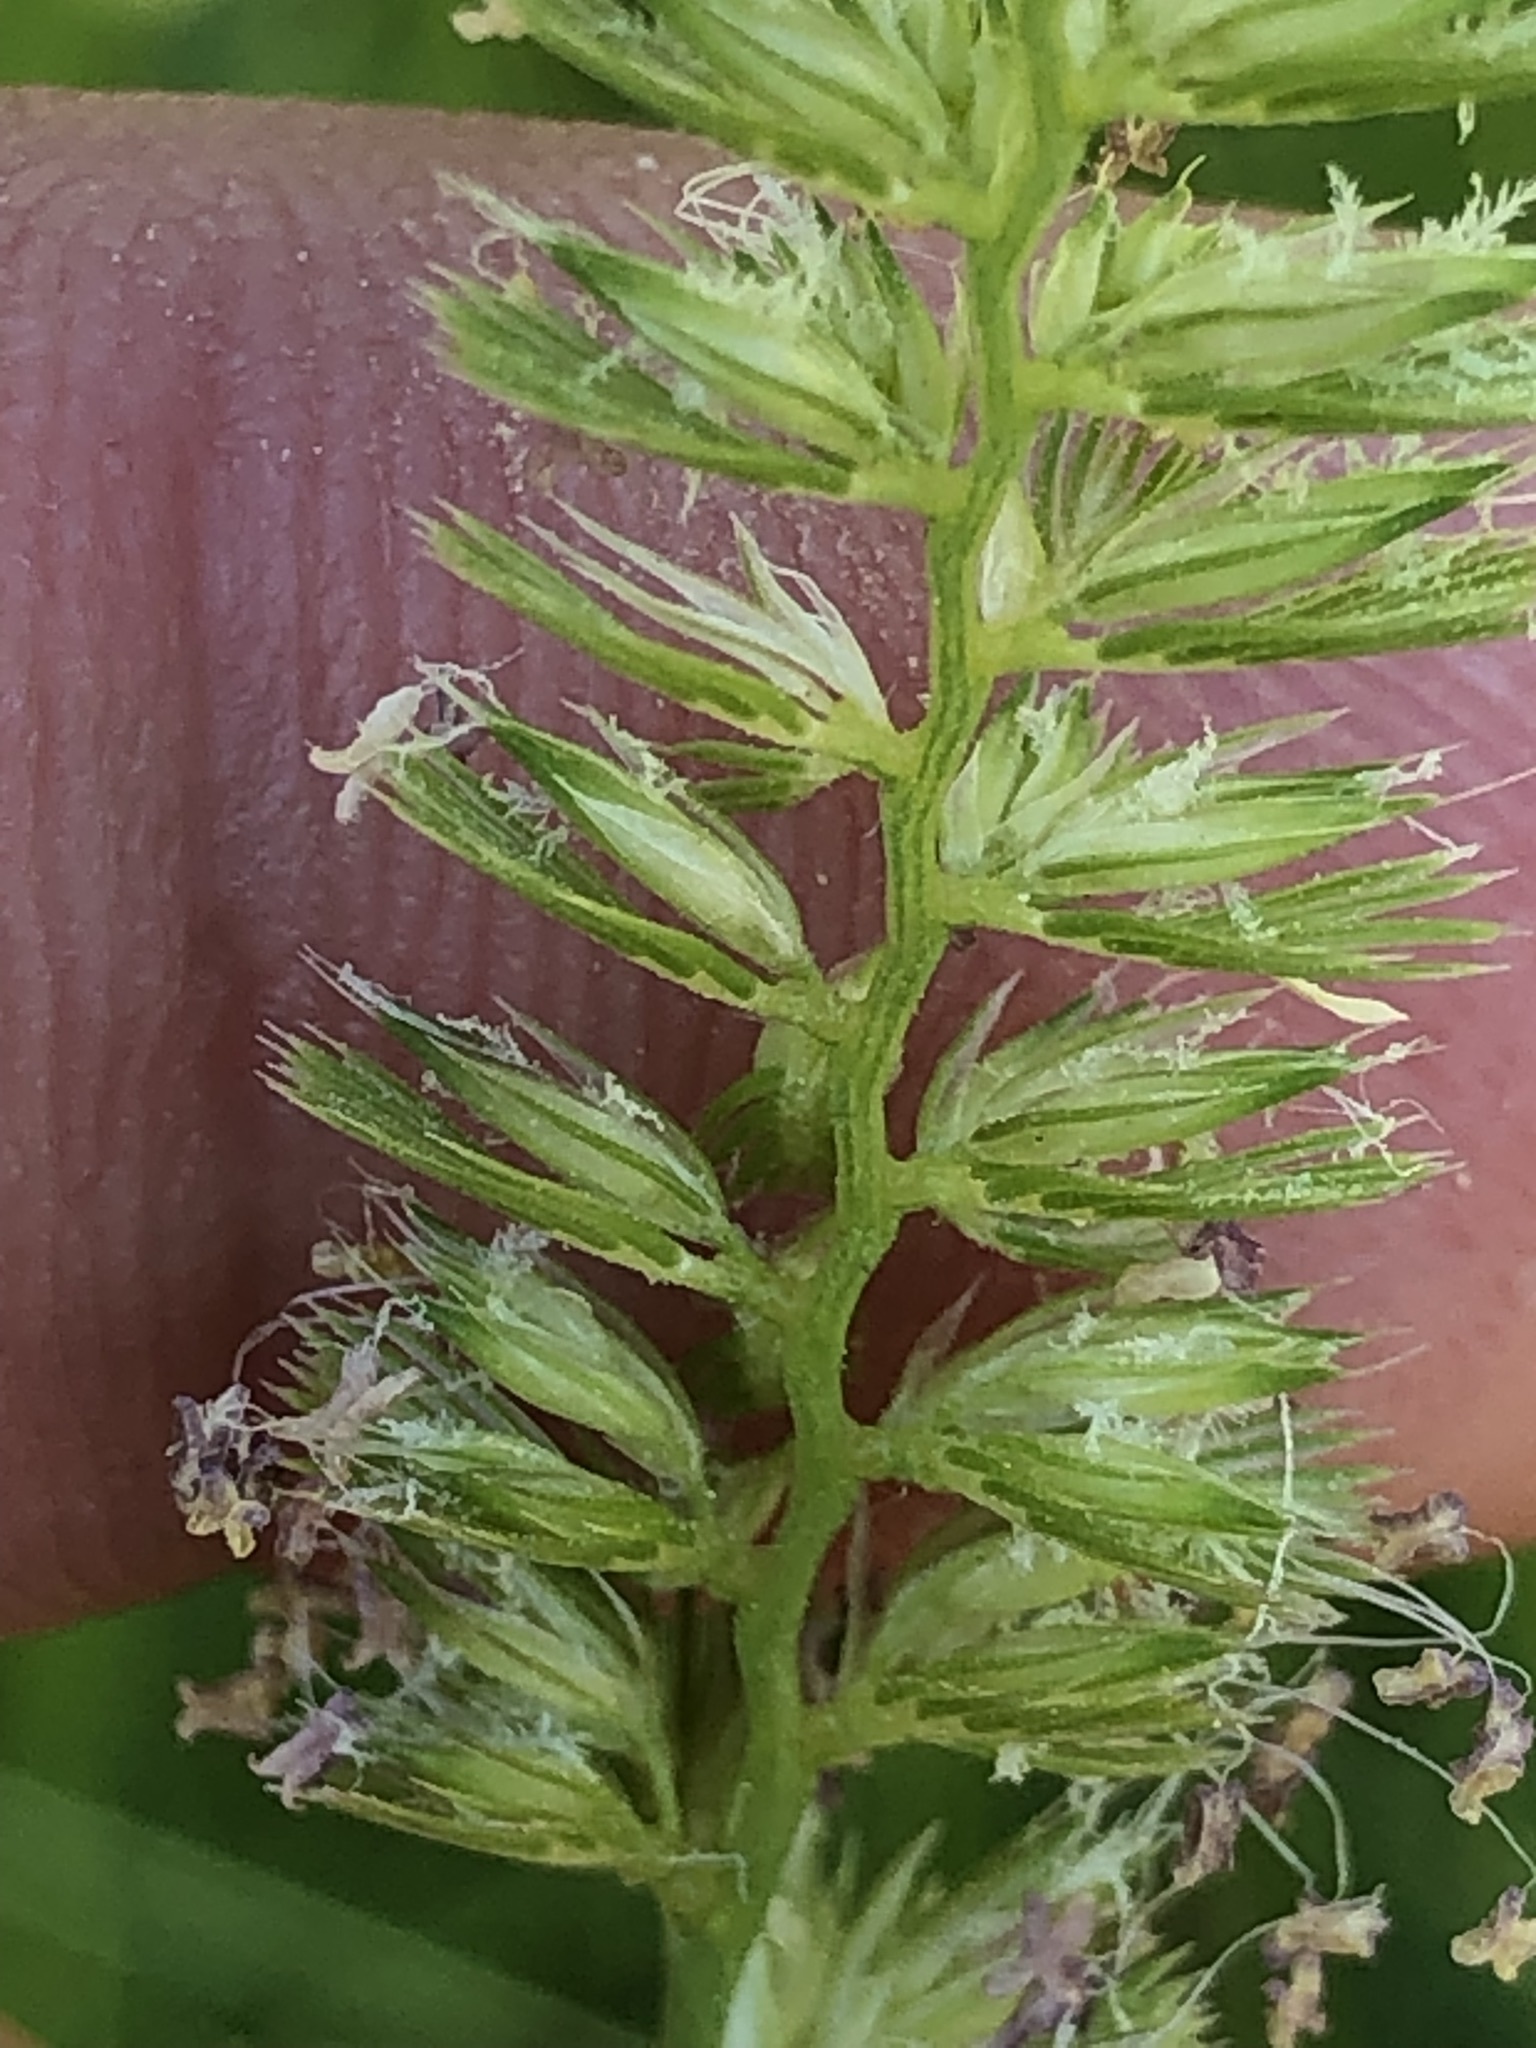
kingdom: Plantae
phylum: Tracheophyta
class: Liliopsida
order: Poales
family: Poaceae
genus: Cynosurus
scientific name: Cynosurus cristatus
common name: Crested dog's-tail
